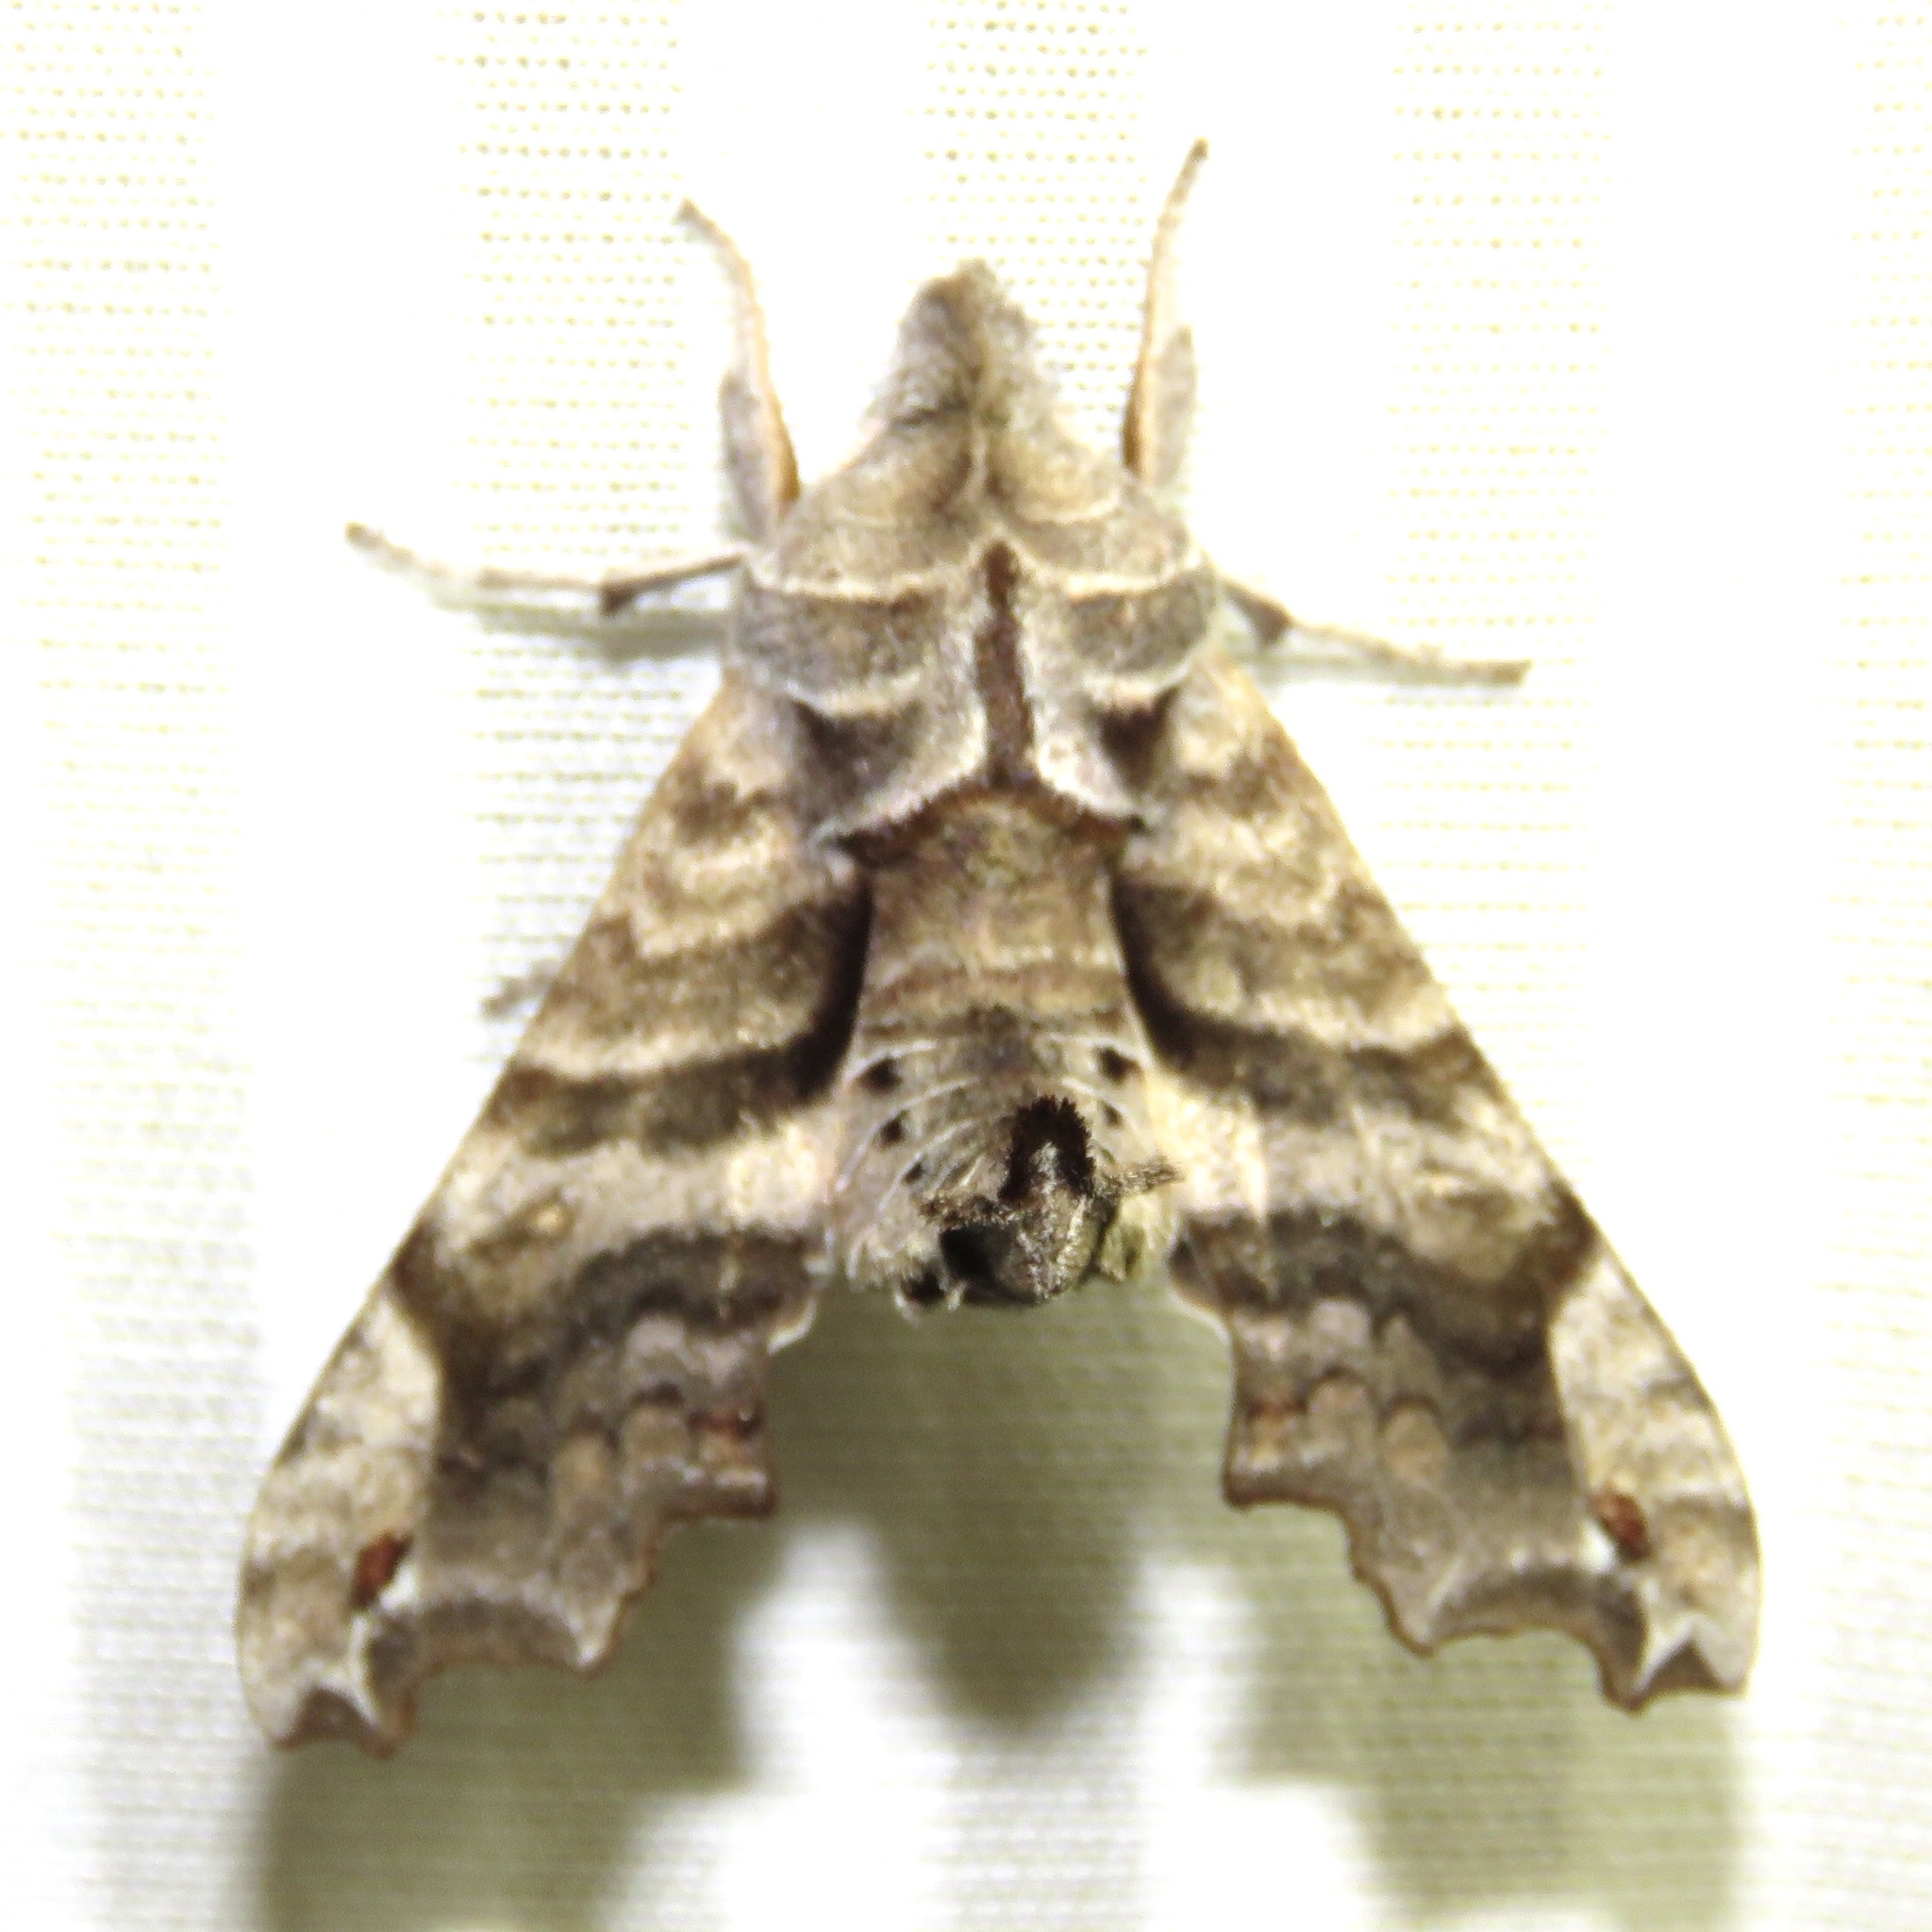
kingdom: Animalia
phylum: Arthropoda
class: Insecta
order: Lepidoptera
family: Sphingidae
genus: Deidamia
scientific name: Deidamia inscriptum
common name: Lettered sphinx
